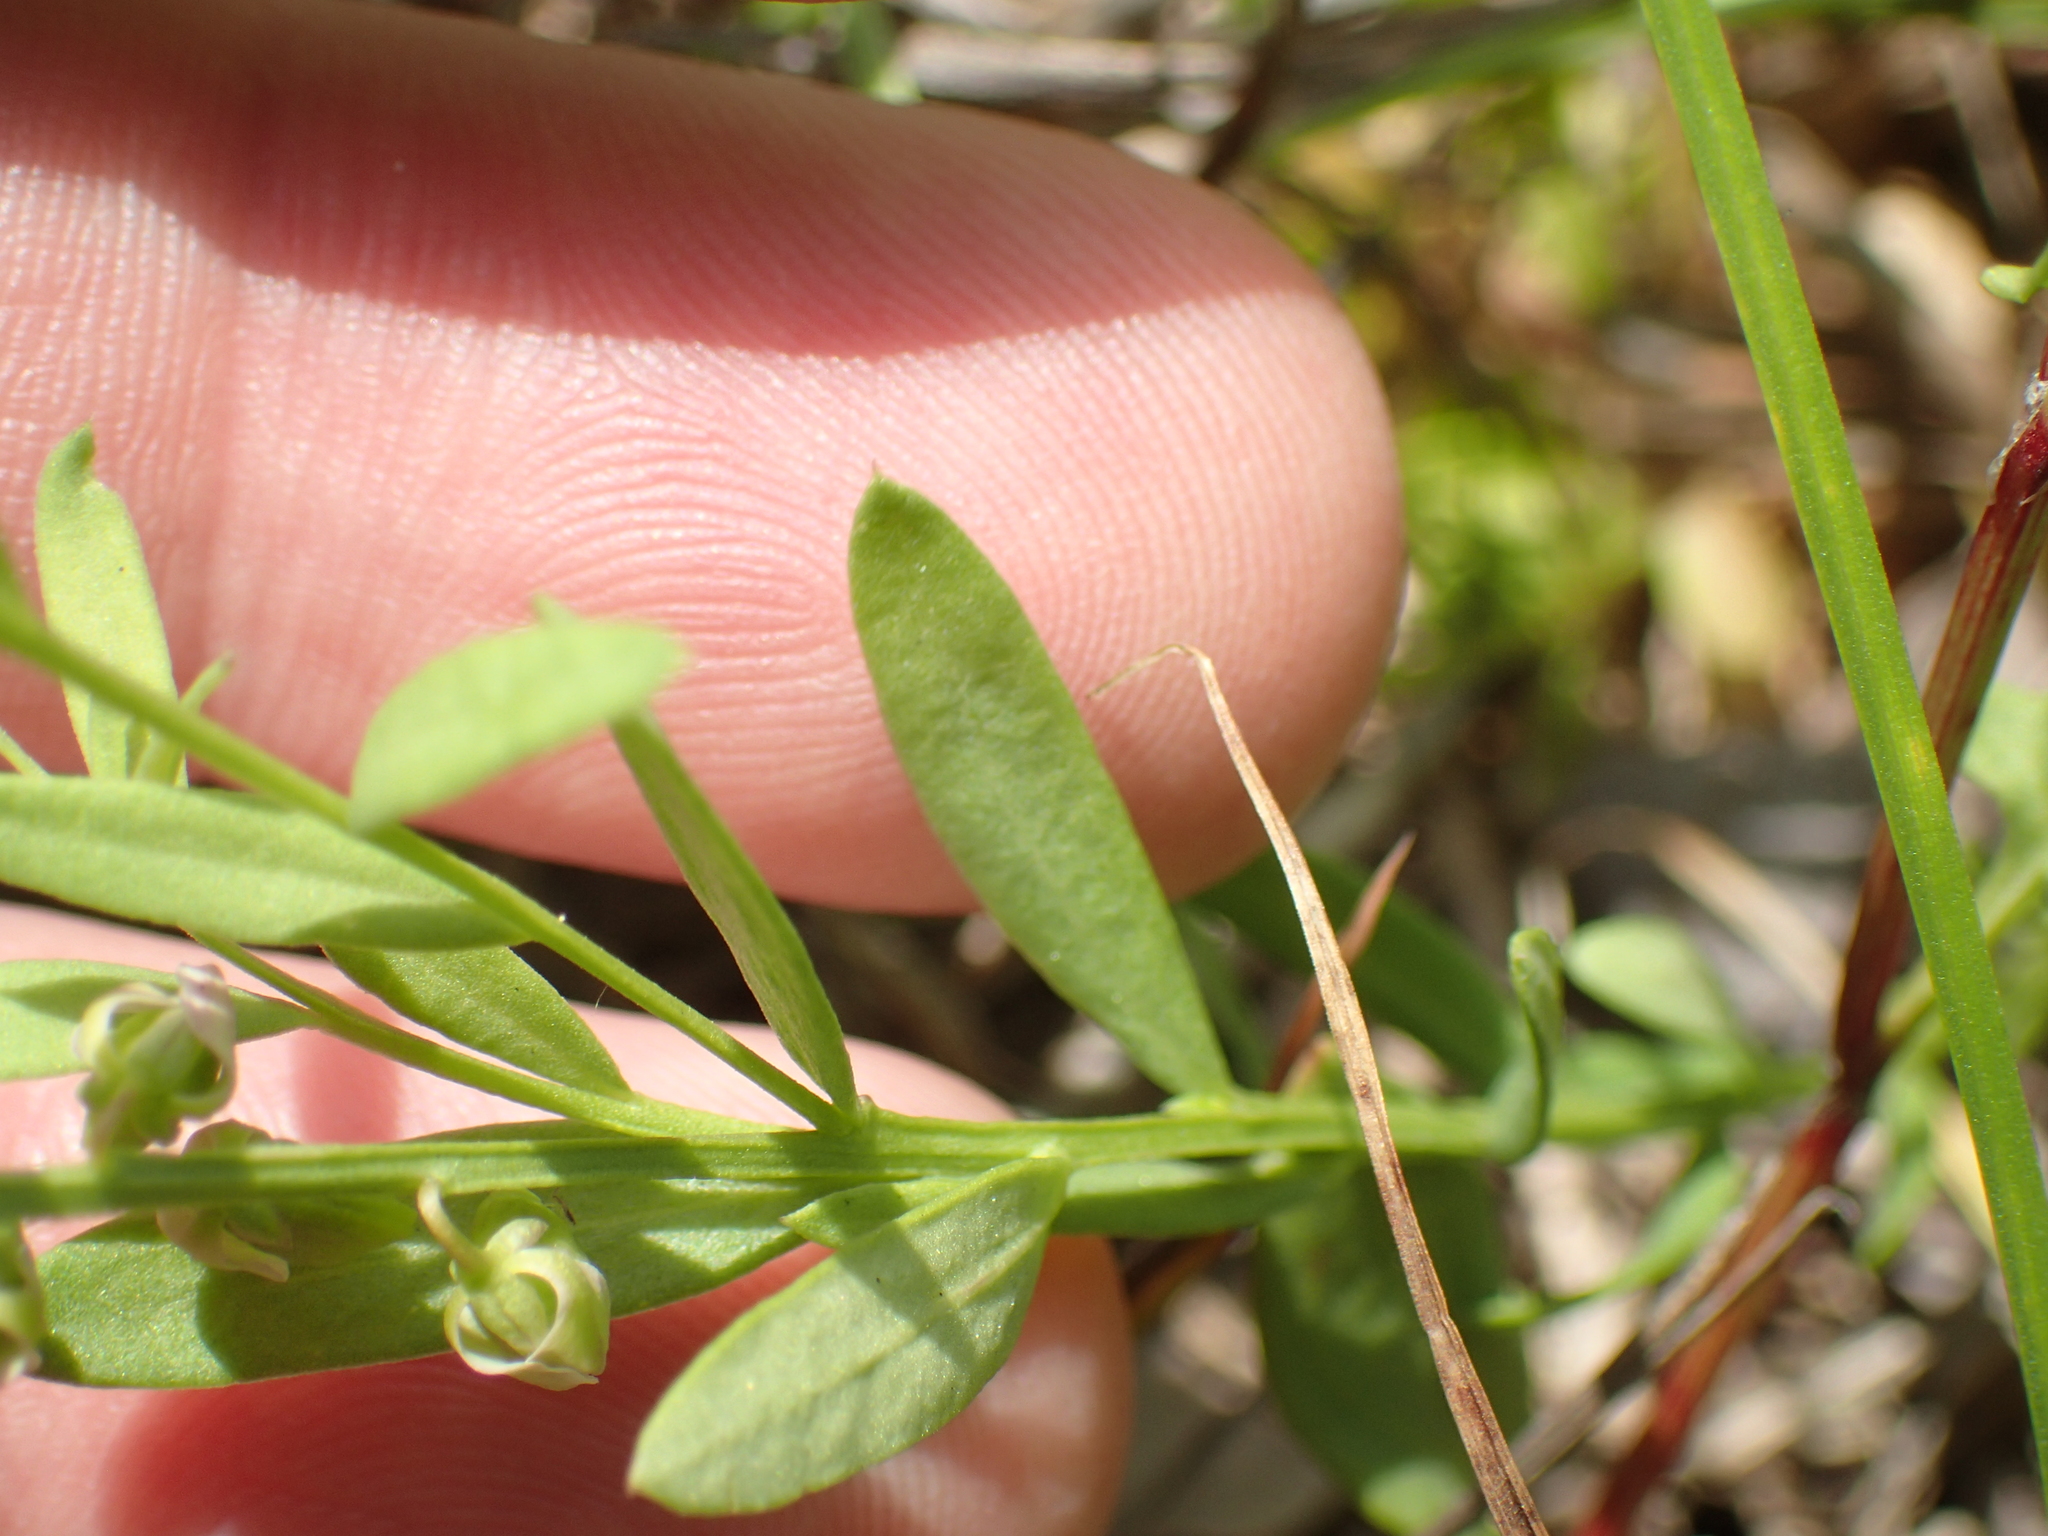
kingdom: Plantae
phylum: Tracheophyta
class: Magnoliopsida
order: Fabales
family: Polygalaceae
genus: Polygala
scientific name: Polygala polygama
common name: Bitter milkwort
